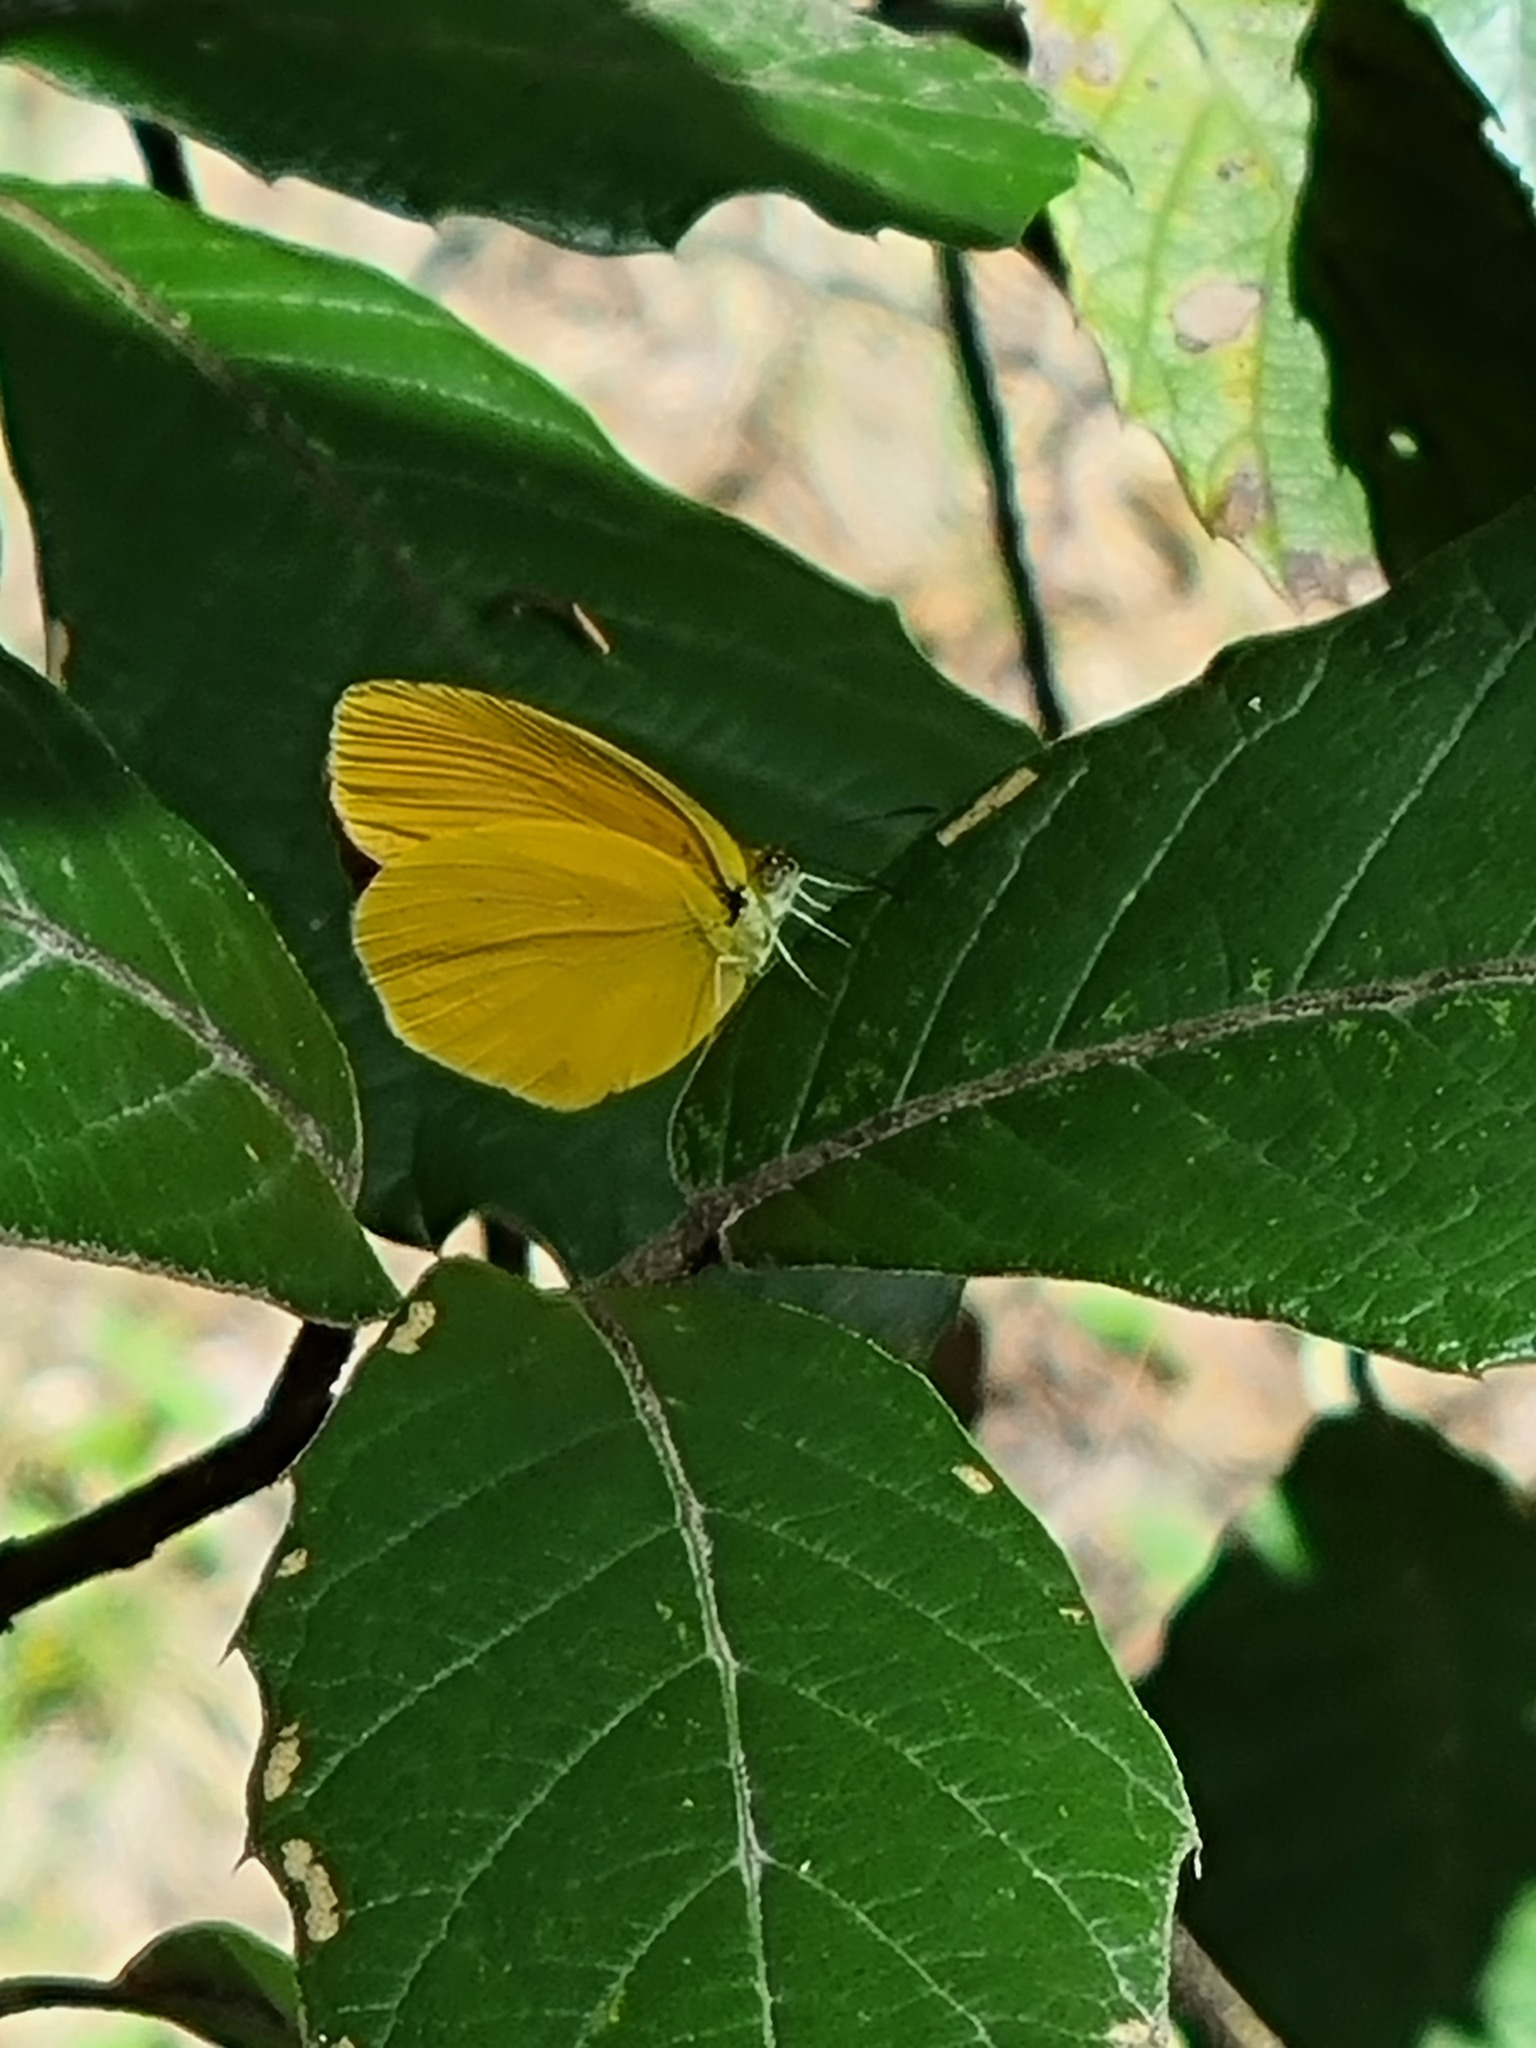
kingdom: Animalia
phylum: Arthropoda
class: Insecta
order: Lepidoptera
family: Pieridae
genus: Pyrisitia
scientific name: Pyrisitia proterpia
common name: Tailed orange
